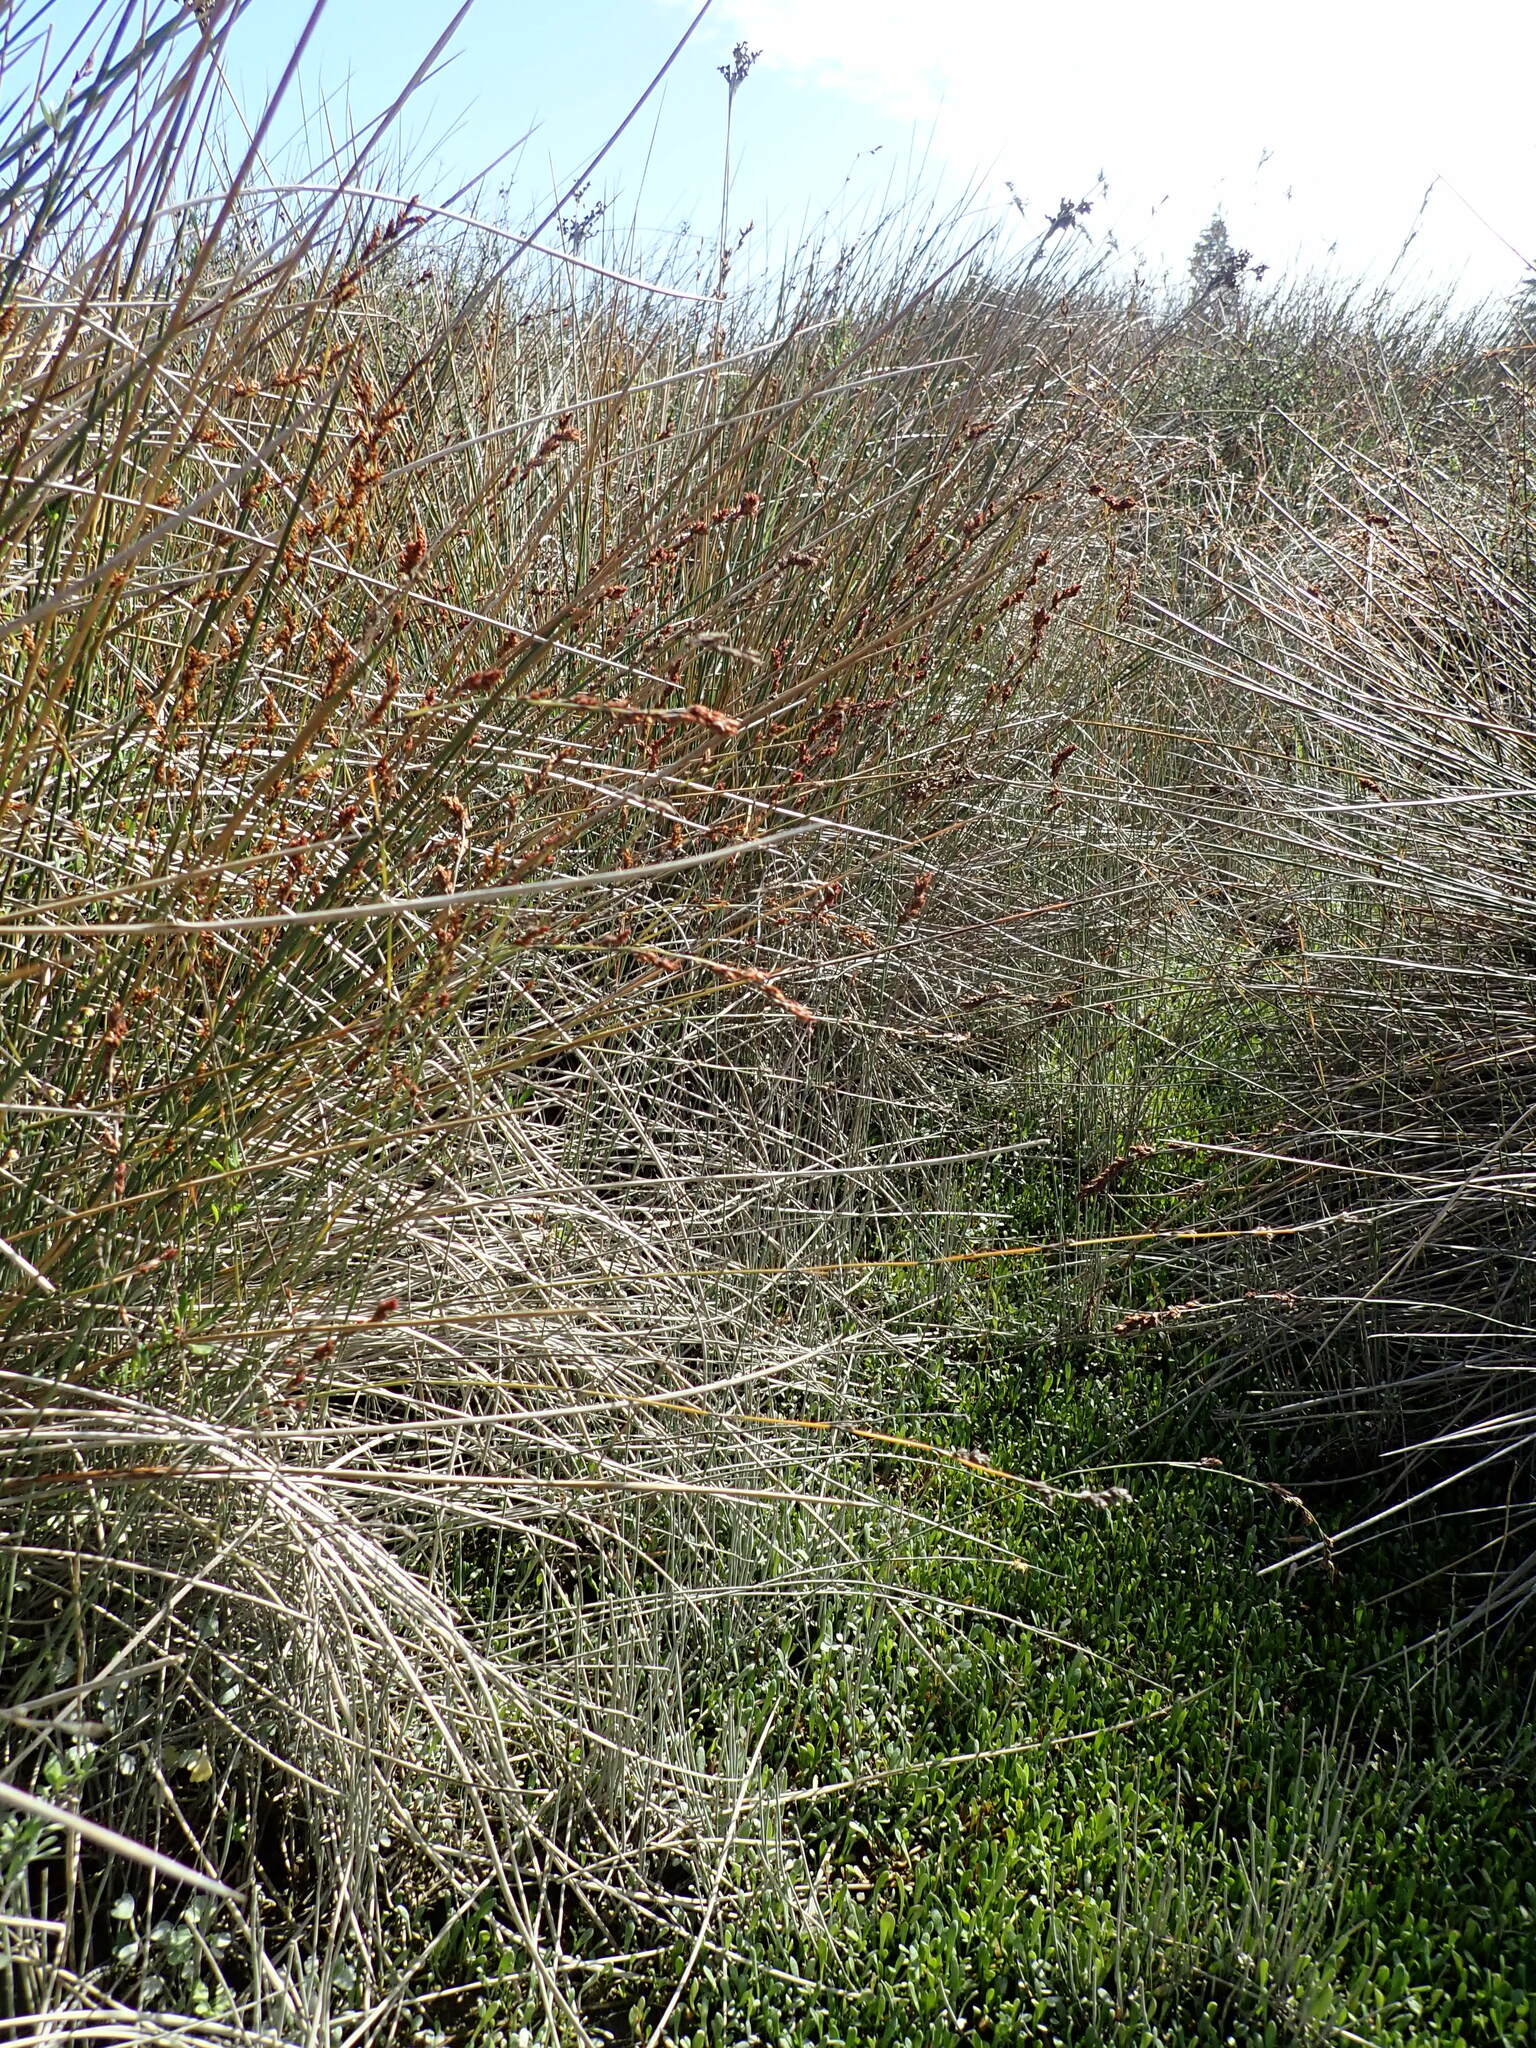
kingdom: Plantae
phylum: Tracheophyta
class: Liliopsida
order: Poales
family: Restionaceae
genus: Apodasmia
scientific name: Apodasmia similis
